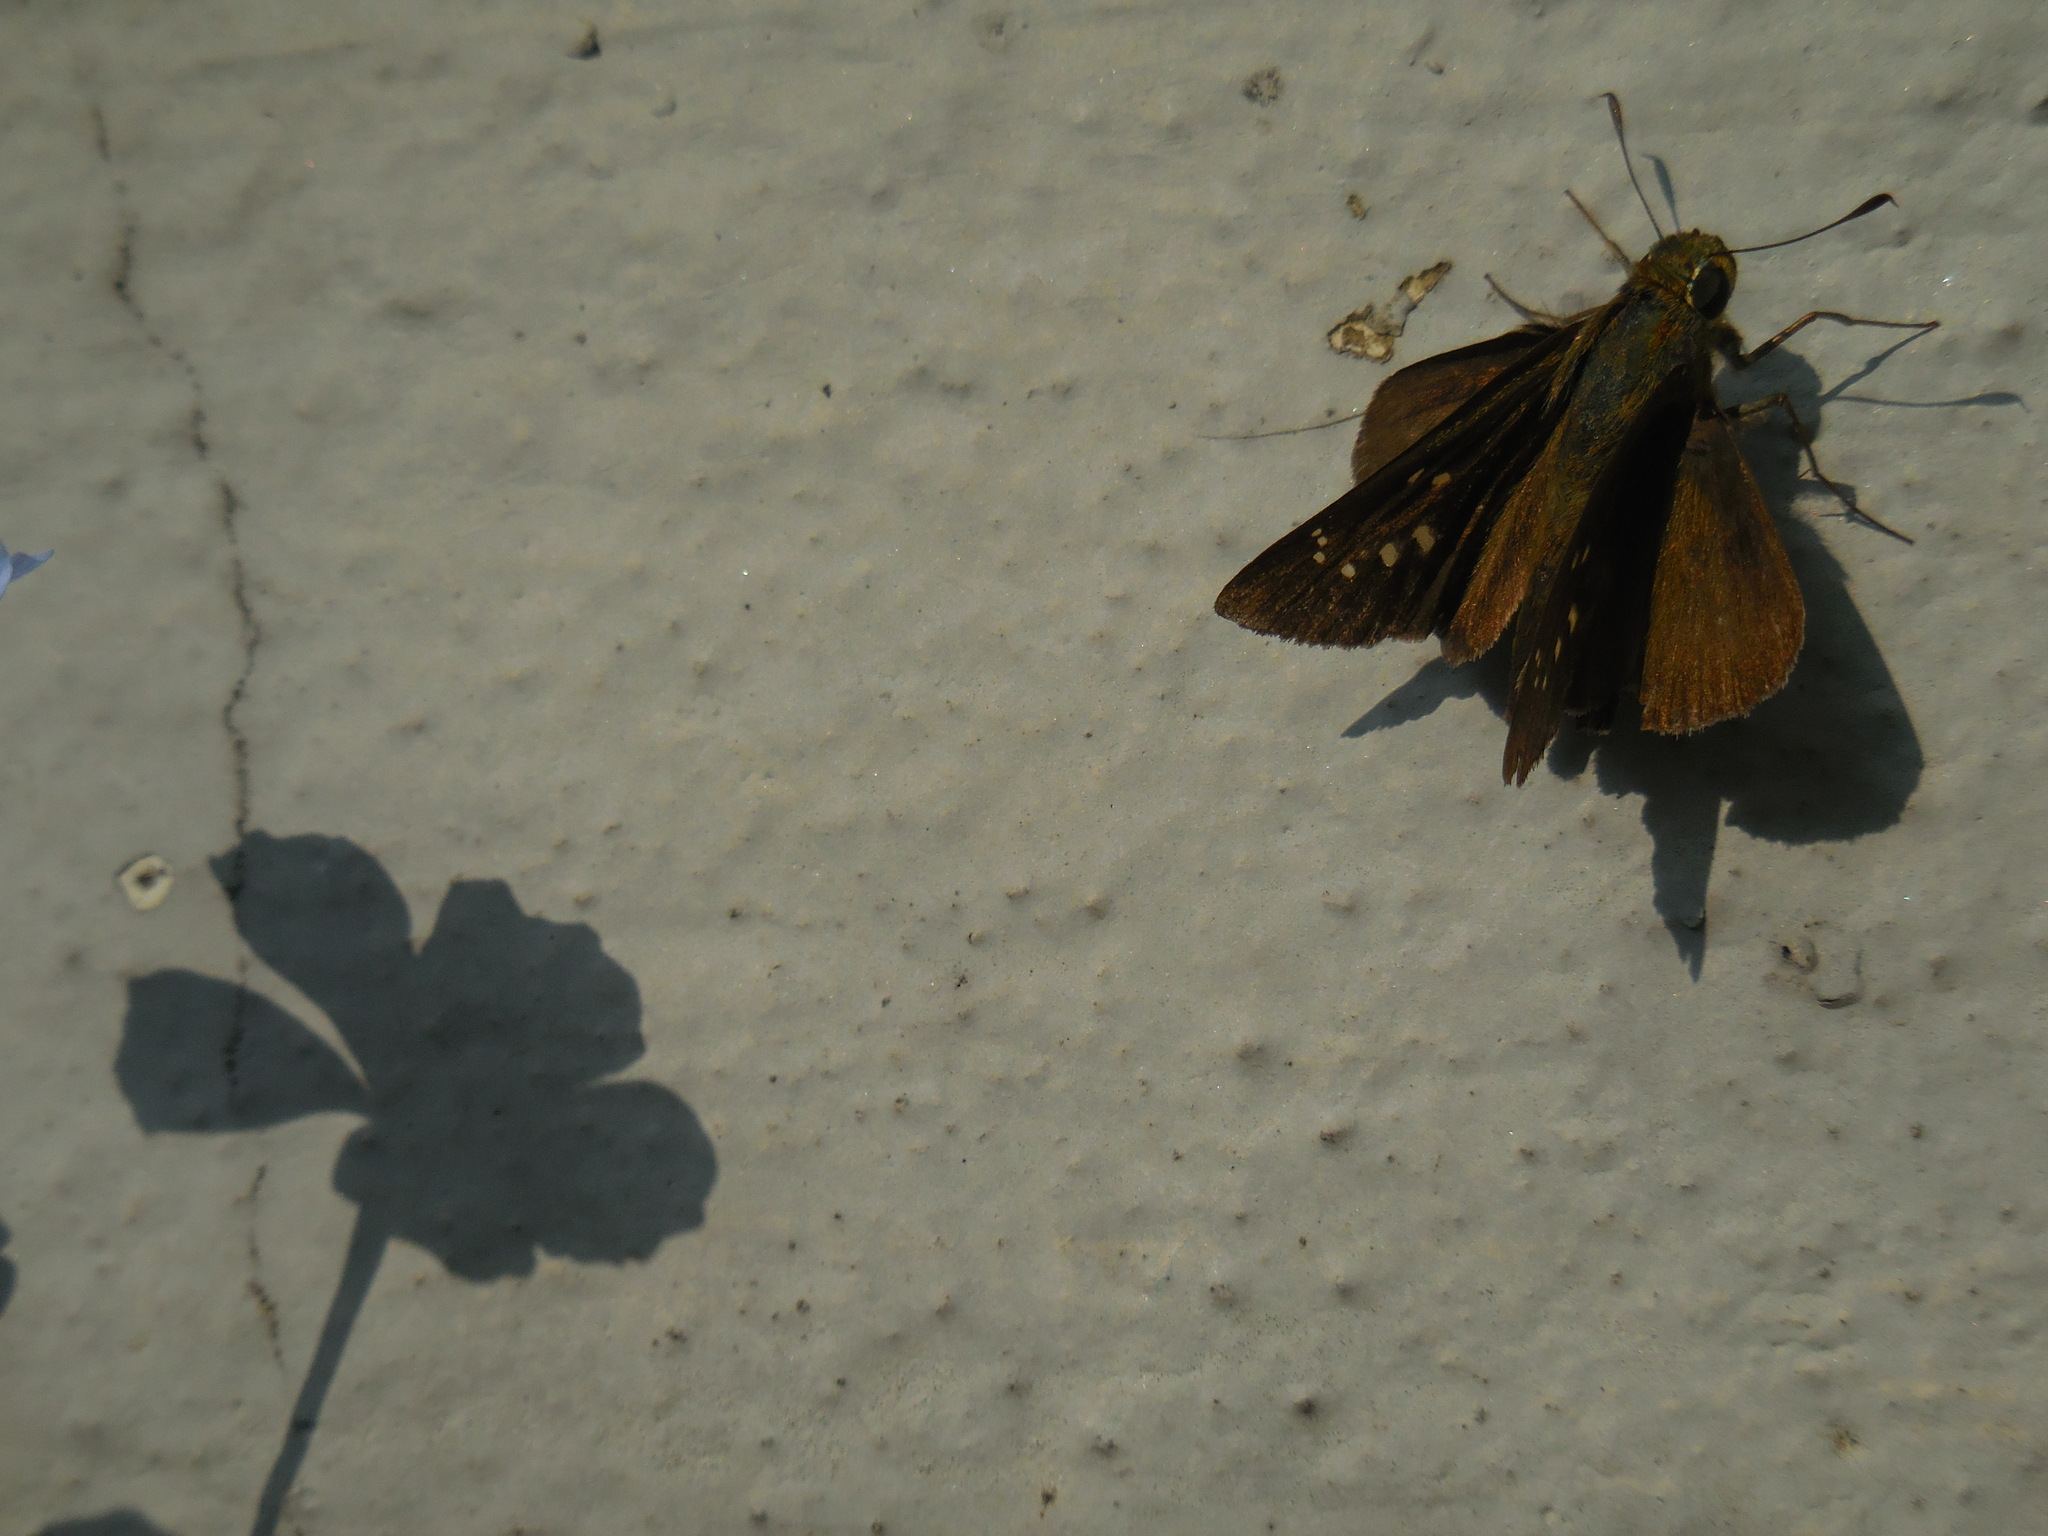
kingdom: Animalia
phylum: Arthropoda
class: Insecta
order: Lepidoptera
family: Hesperiidae
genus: Parnara
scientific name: Parnara guttatus
